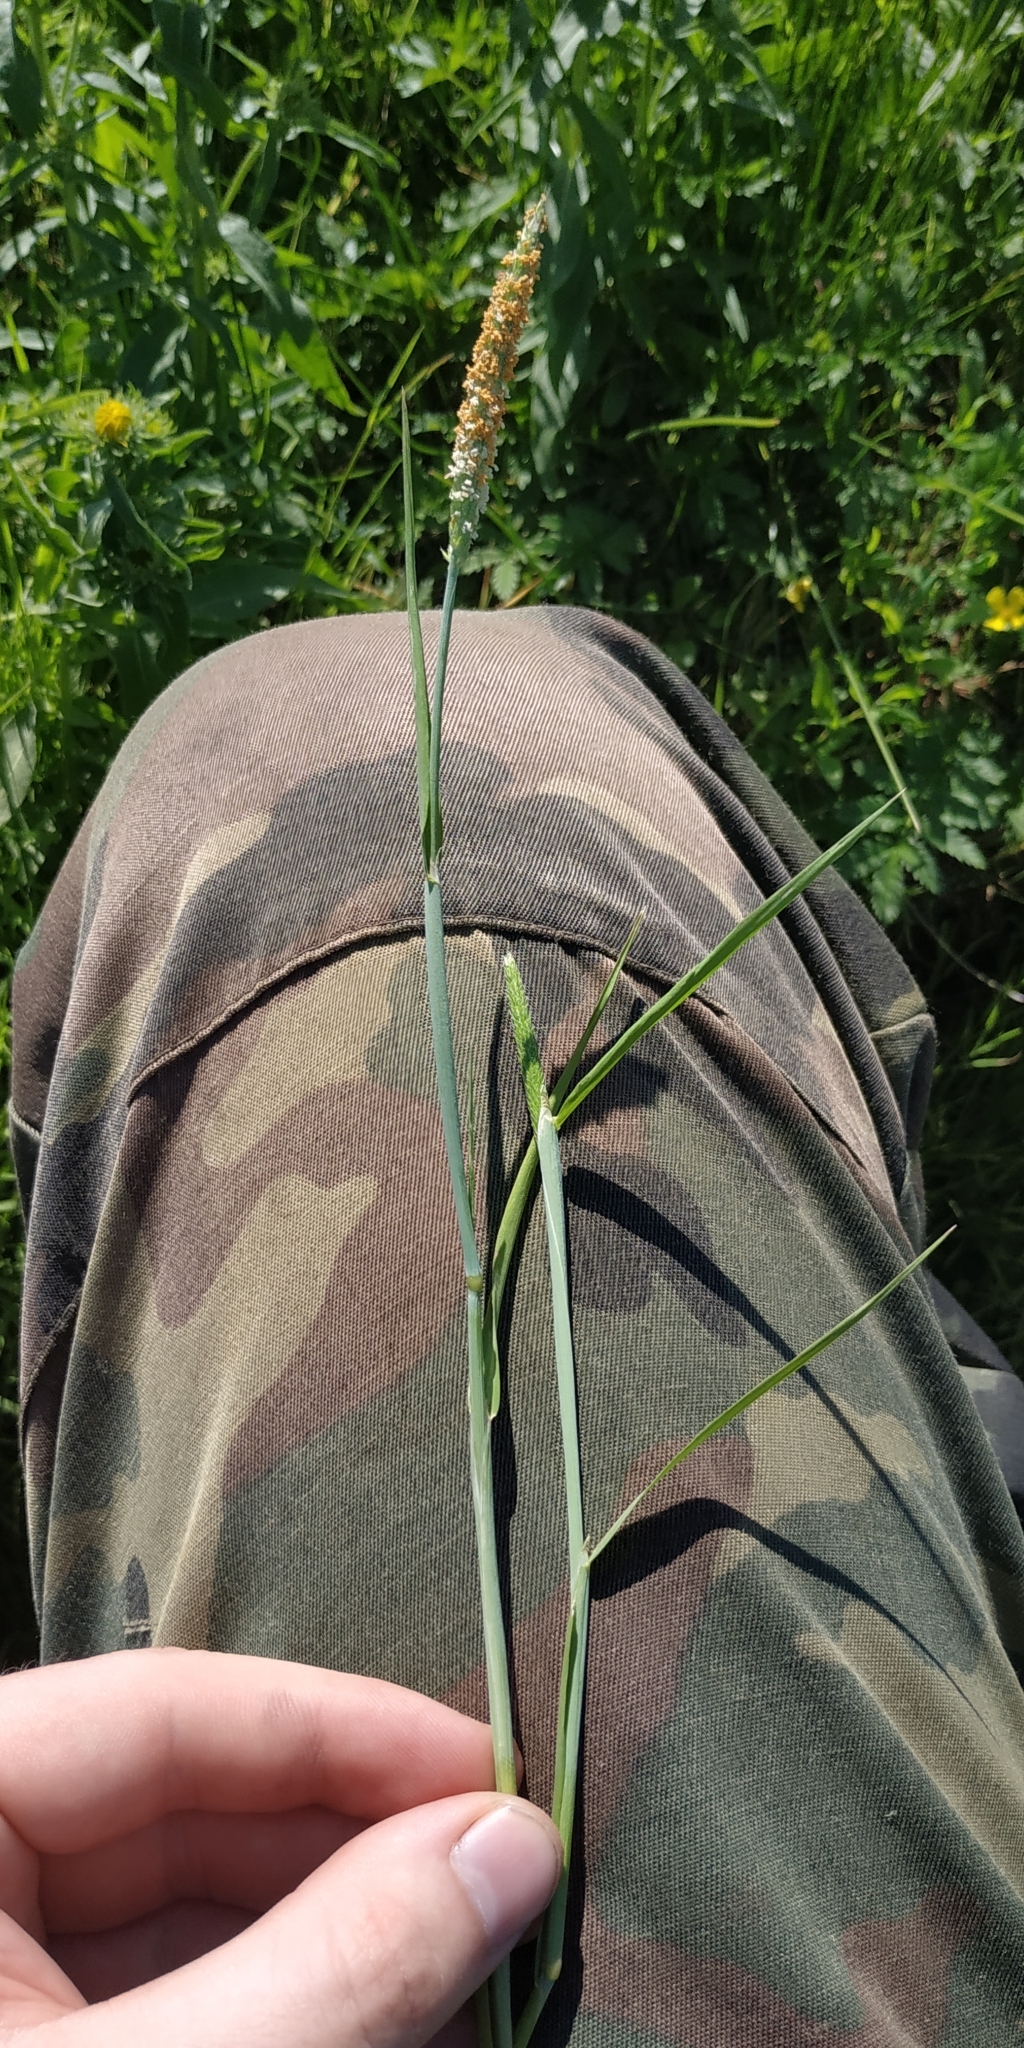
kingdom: Plantae
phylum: Tracheophyta
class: Liliopsida
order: Poales
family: Poaceae
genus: Alopecurus
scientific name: Alopecurus aequalis
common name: Orange foxtail
